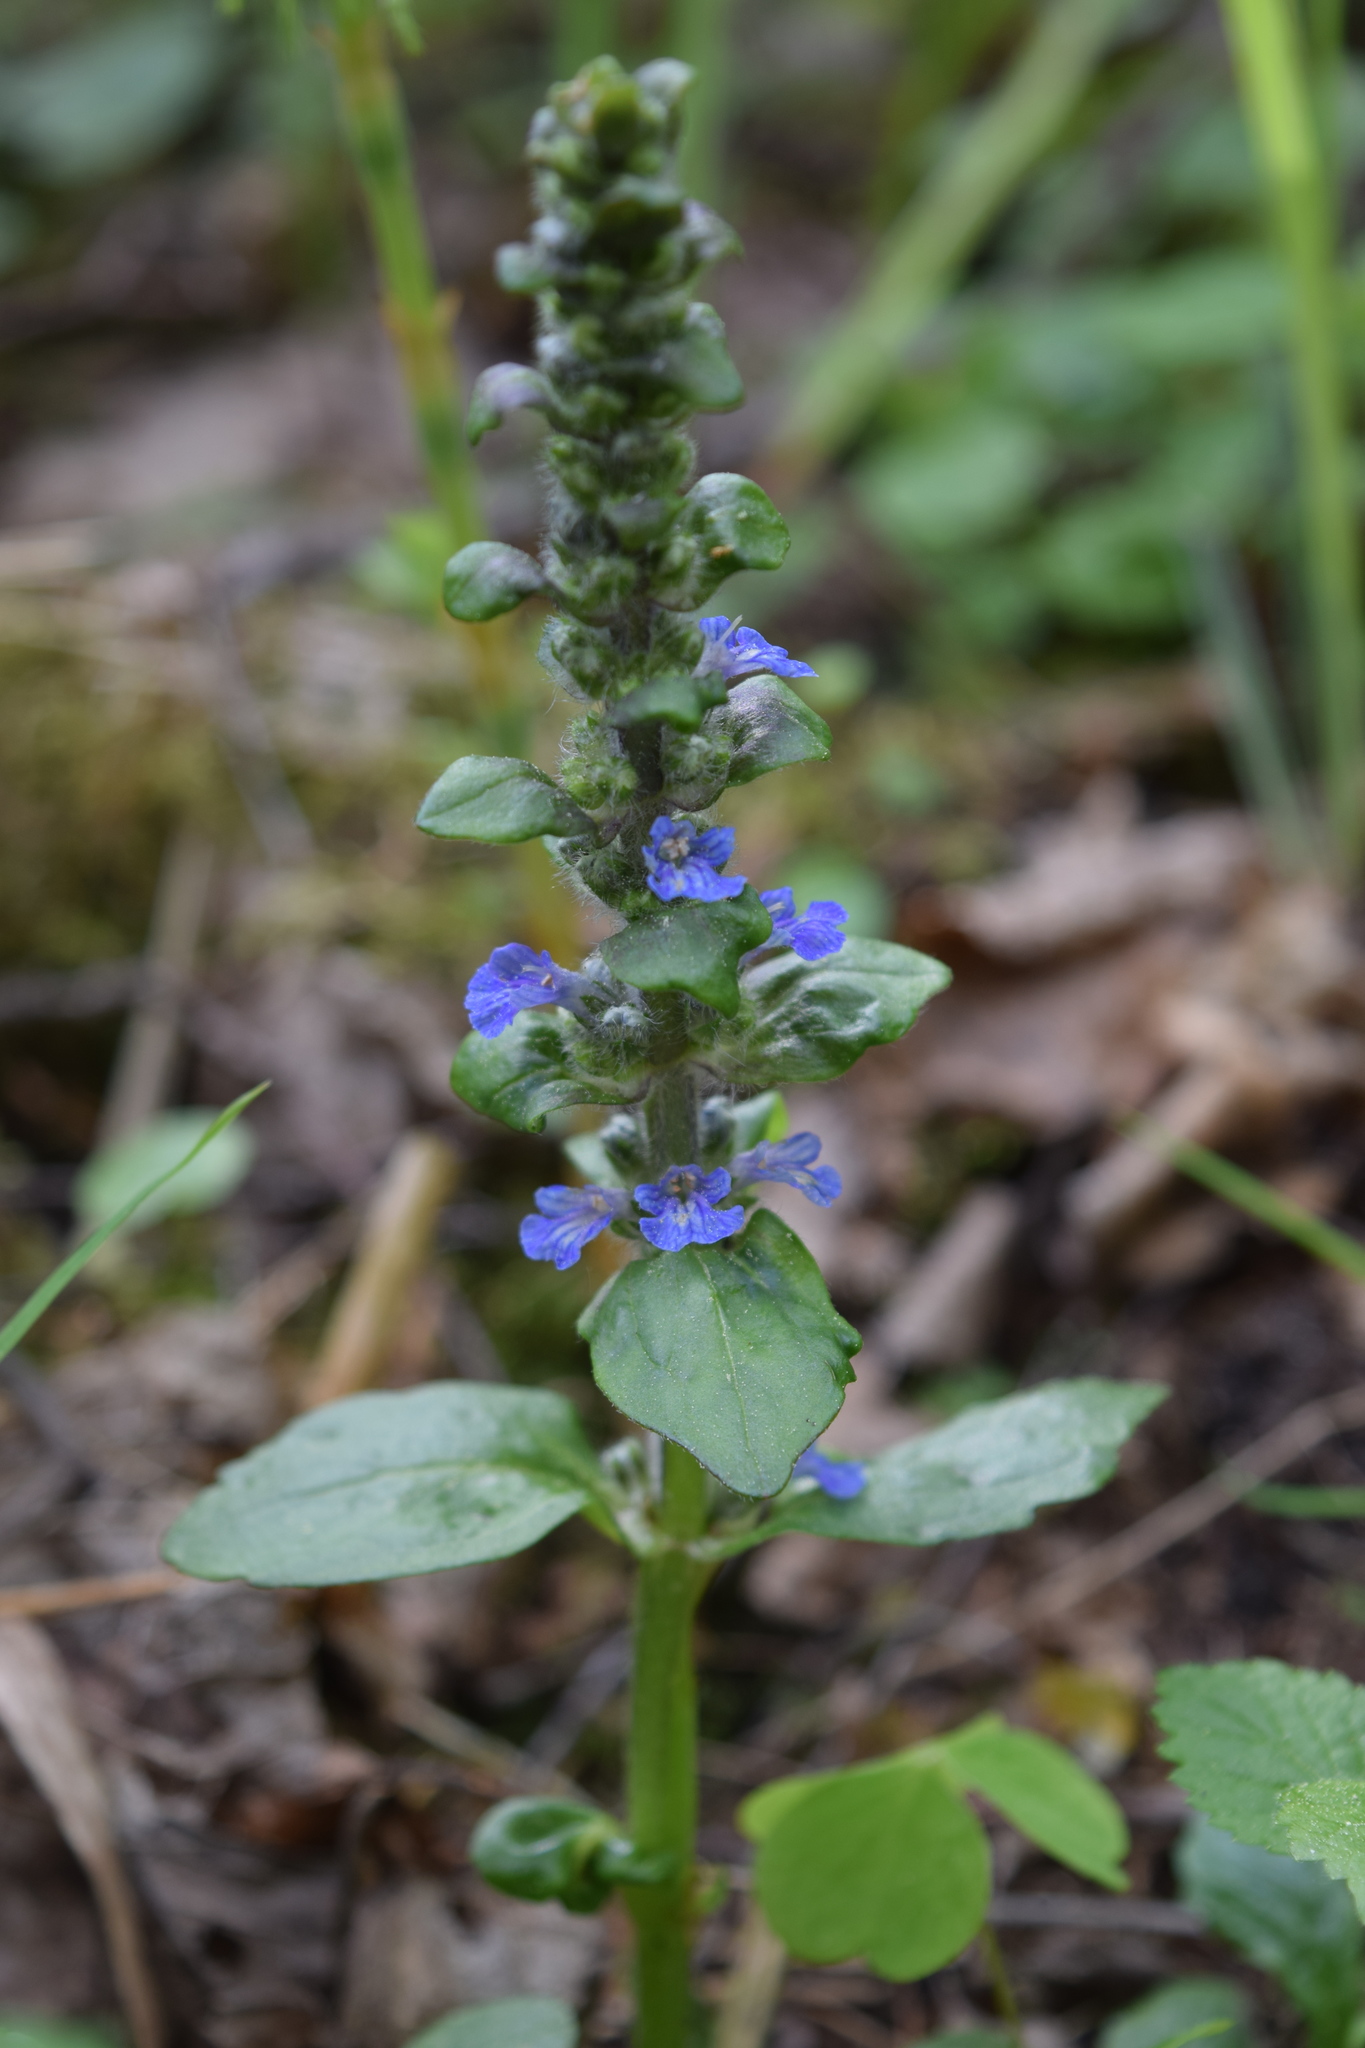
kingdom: Plantae
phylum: Tracheophyta
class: Magnoliopsida
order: Lamiales
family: Lamiaceae
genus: Ajuga
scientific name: Ajuga reptans
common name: Bugle
